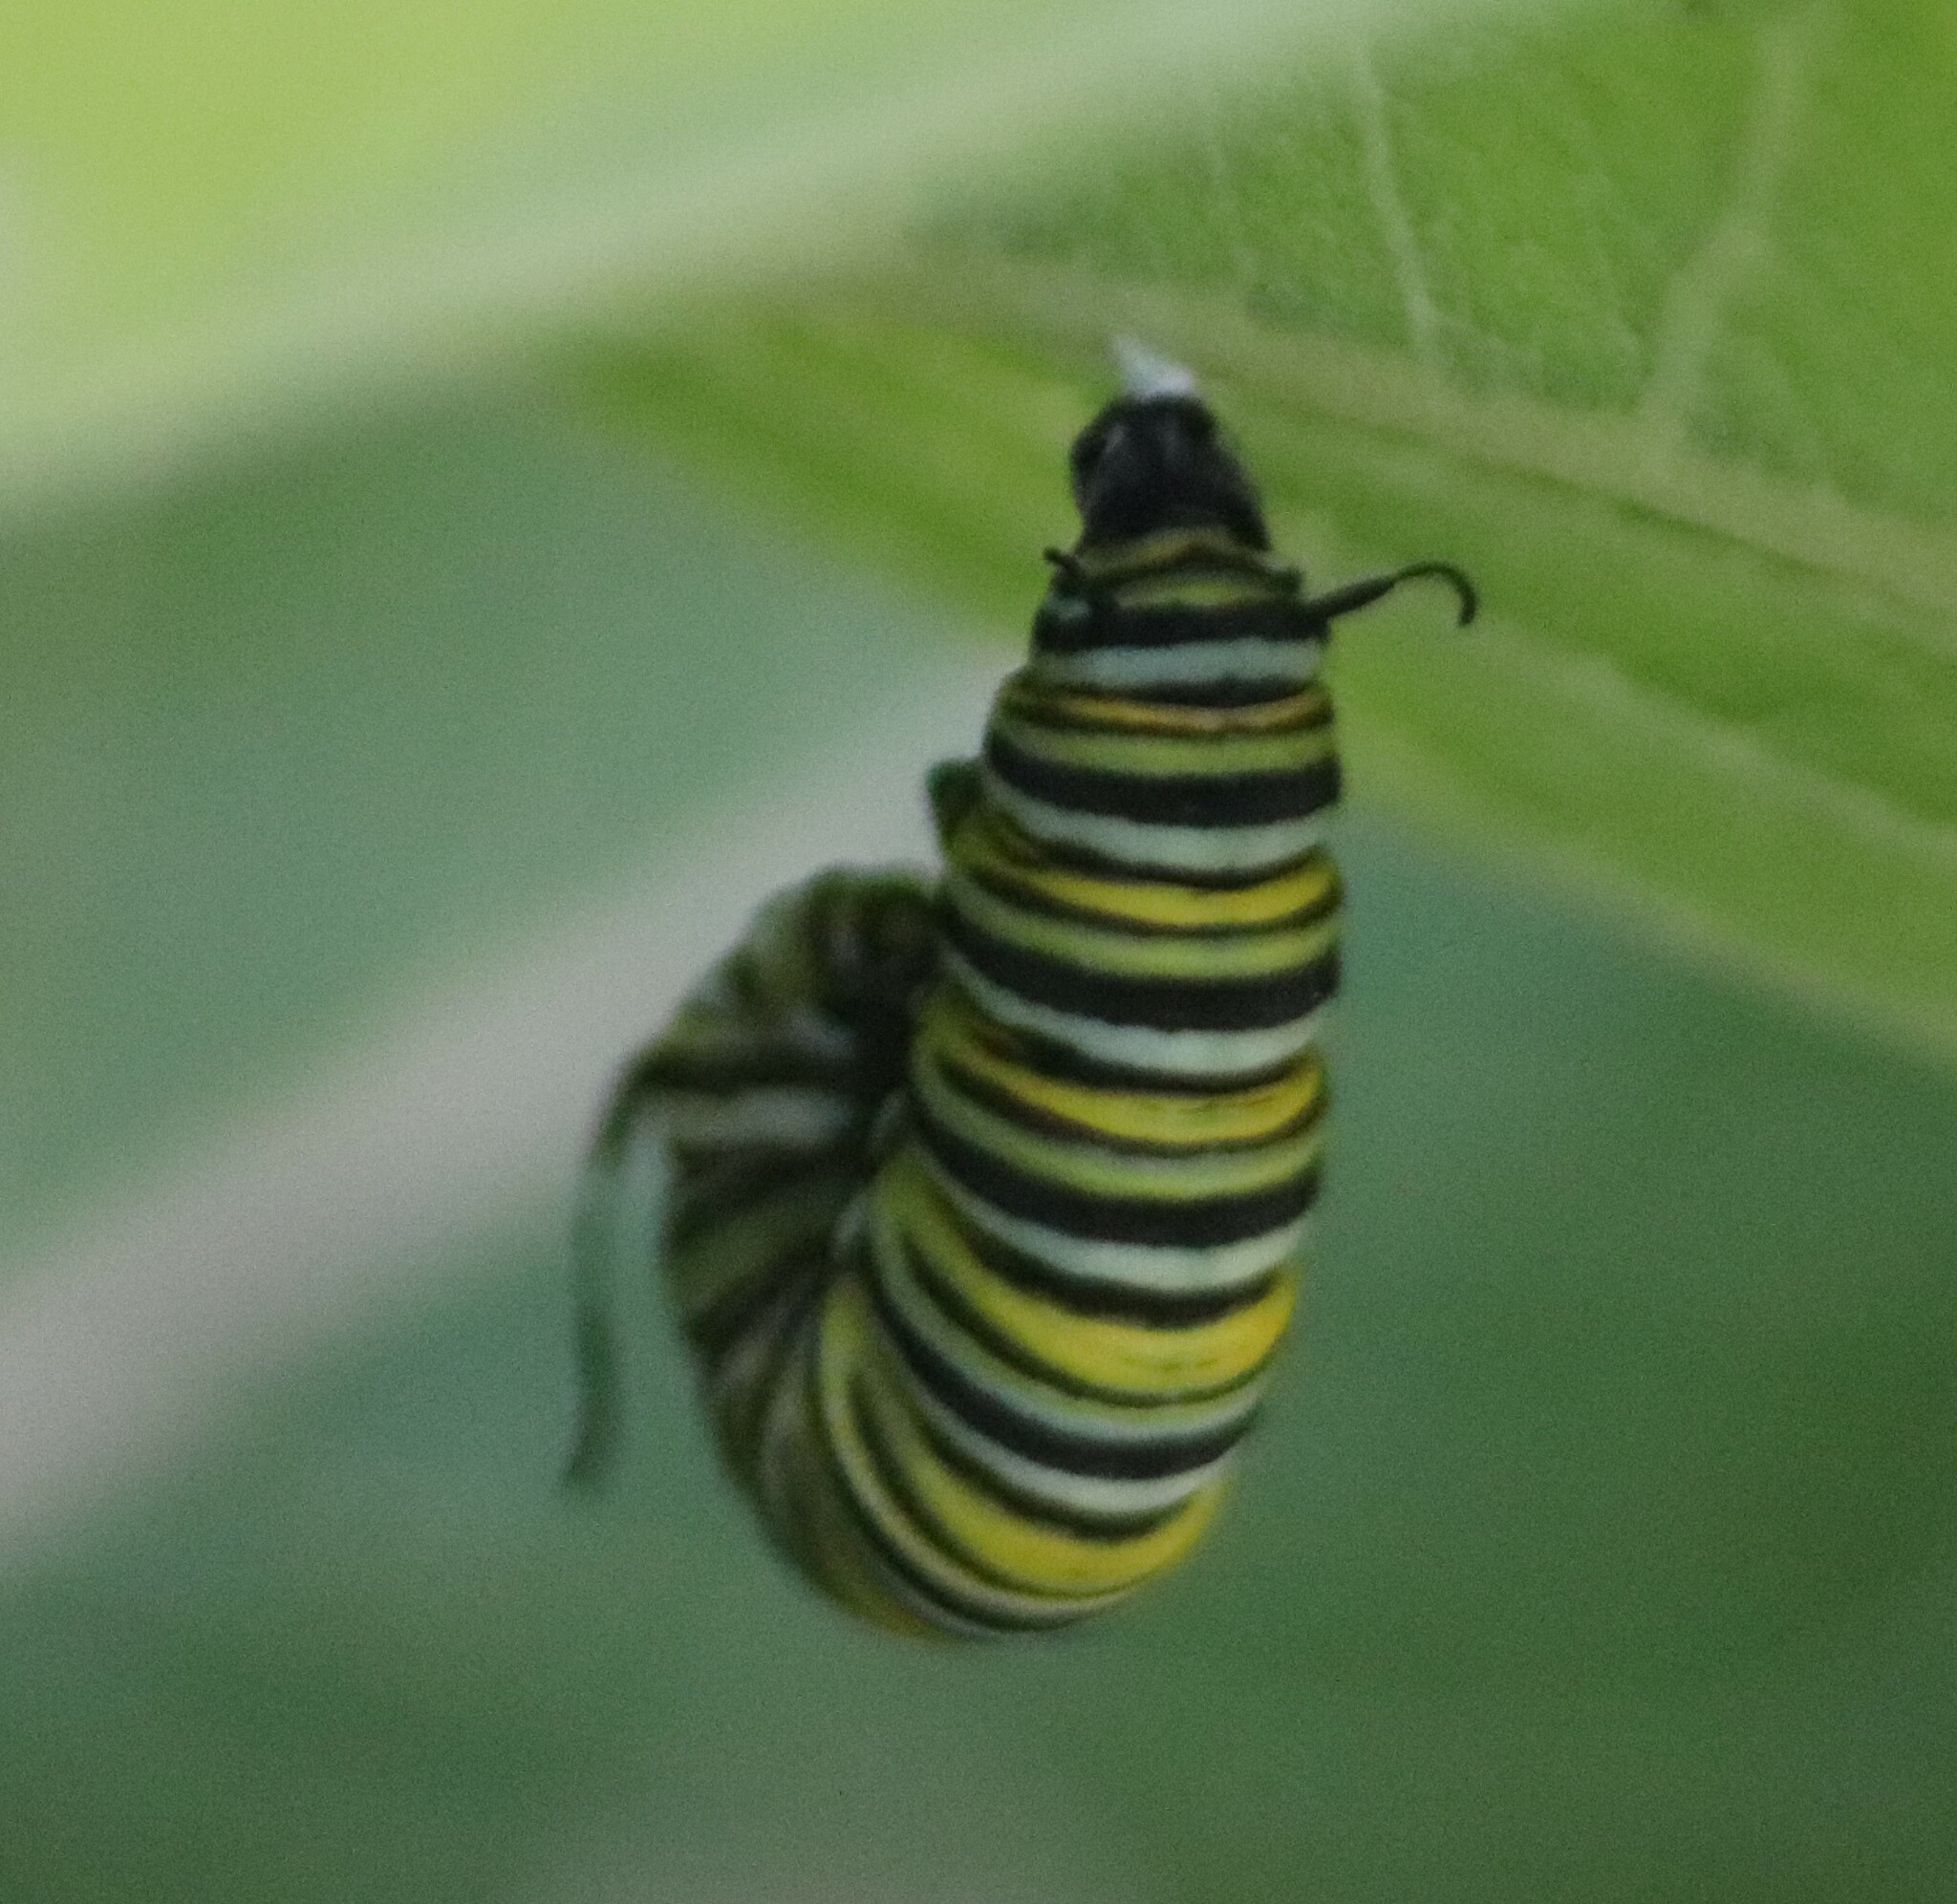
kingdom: Animalia
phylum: Arthropoda
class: Insecta
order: Lepidoptera
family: Nymphalidae
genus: Danaus
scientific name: Danaus plexippus
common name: Monarch
